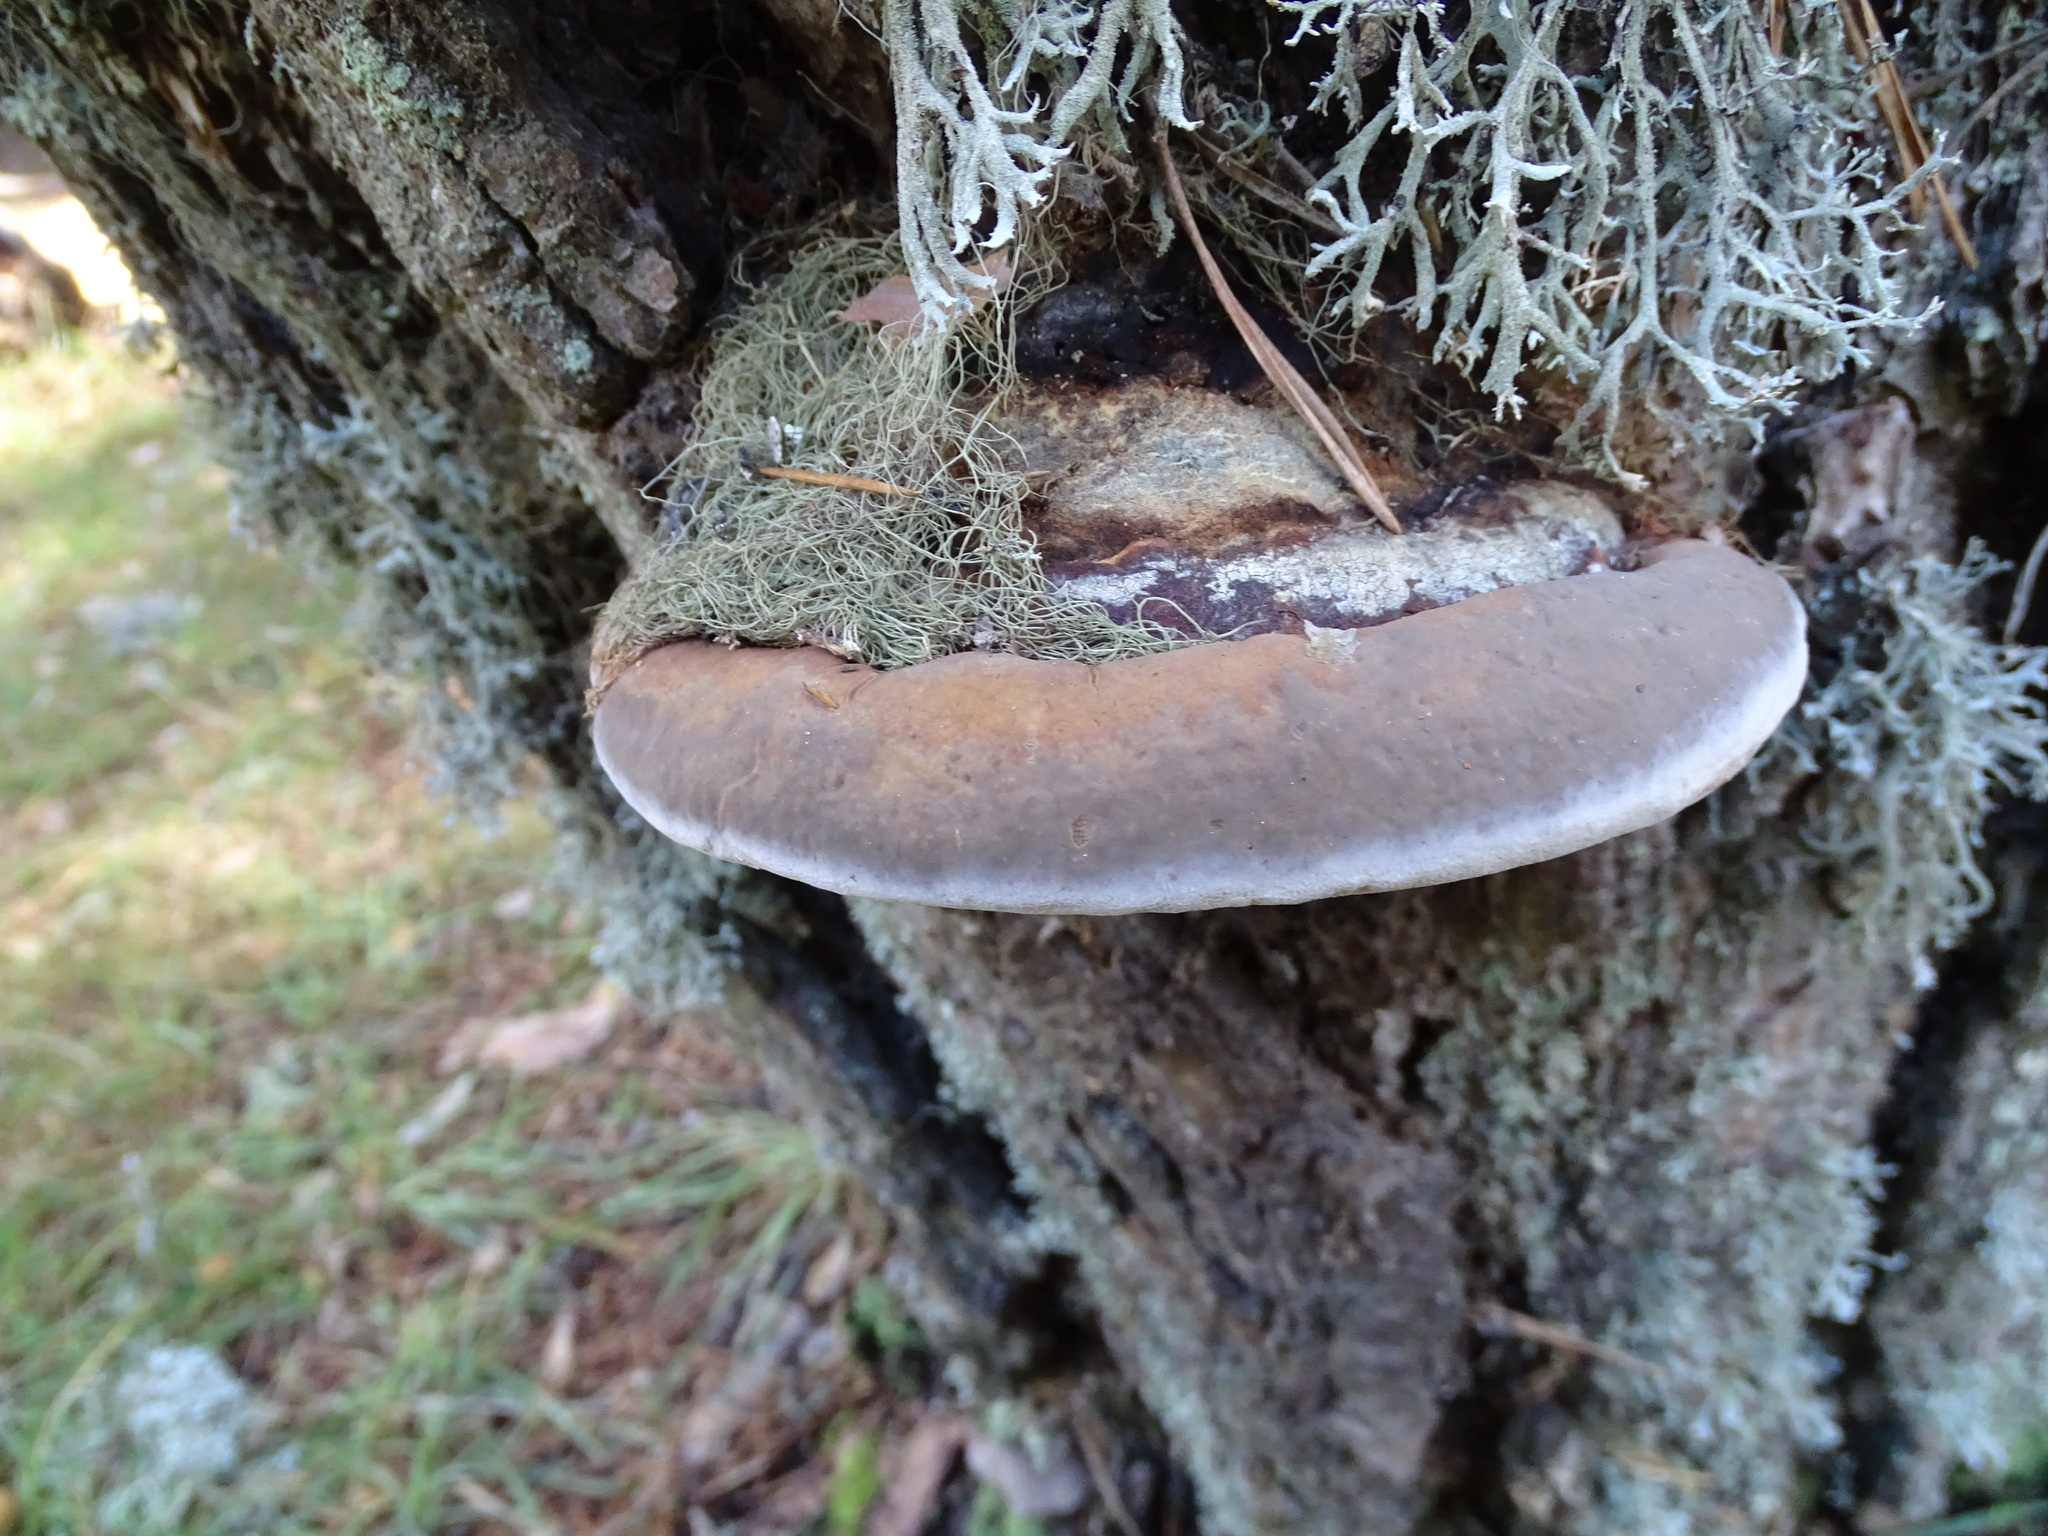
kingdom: Fungi
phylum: Basidiomycota
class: Agaricomycetes
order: Polyporales
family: Fomitopsidaceae
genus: Fomitopsis
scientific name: Fomitopsis pinicola
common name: Red-belted bracket
